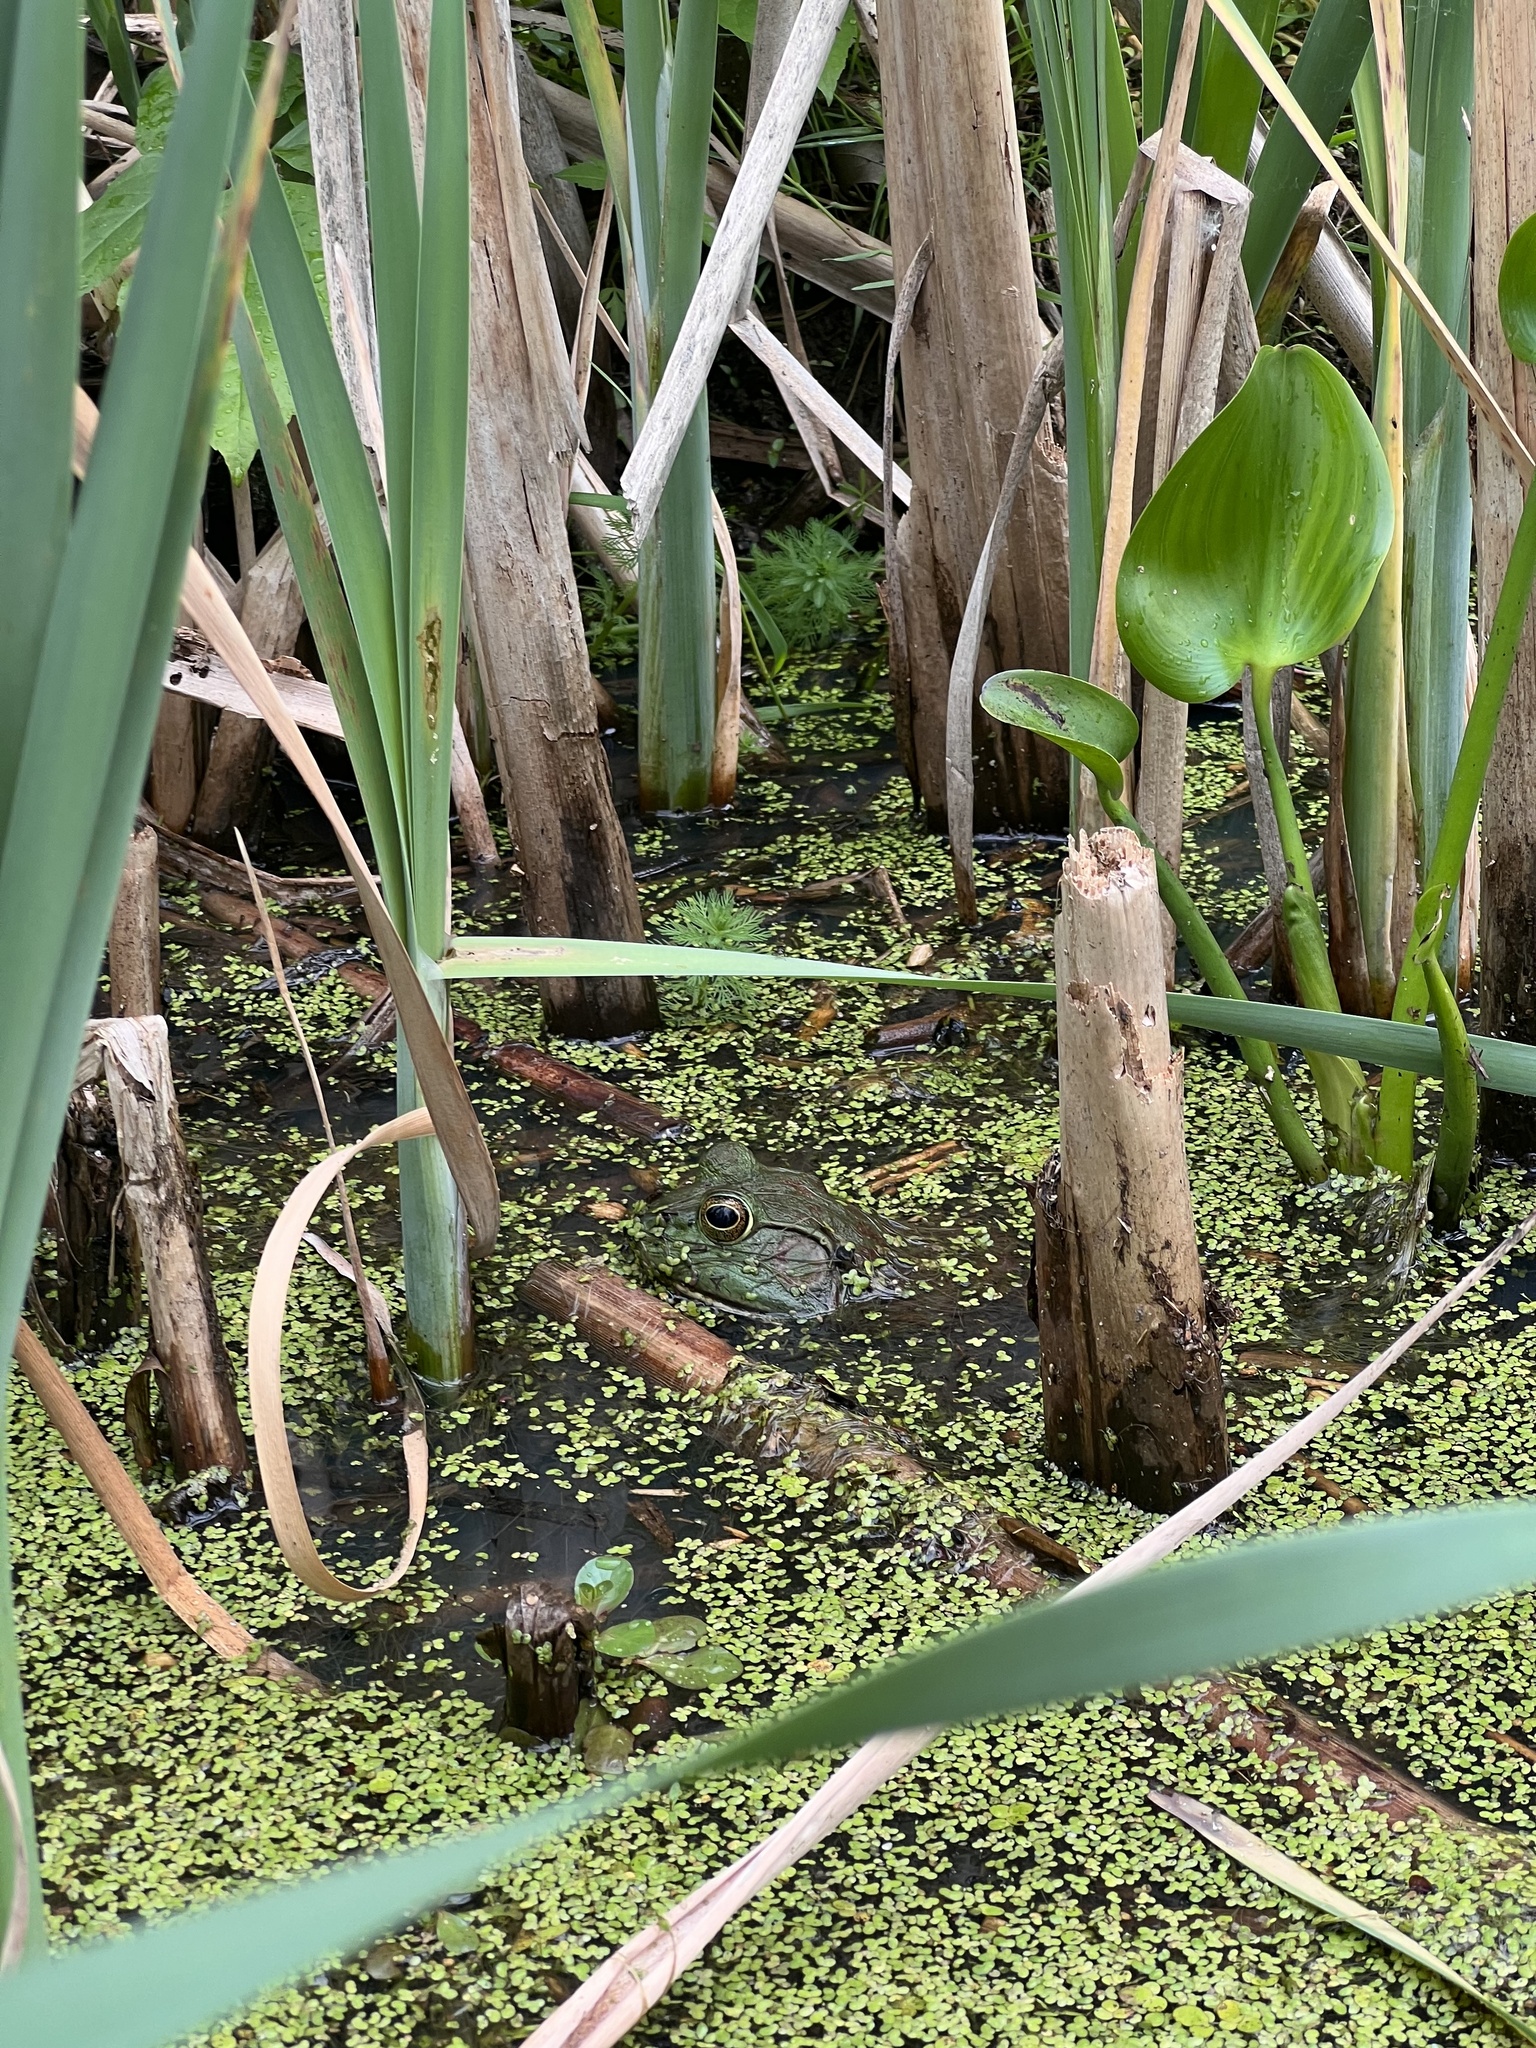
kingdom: Animalia
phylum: Chordata
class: Amphibia
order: Anura
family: Ranidae
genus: Lithobates
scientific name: Lithobates catesbeianus
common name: American bullfrog
